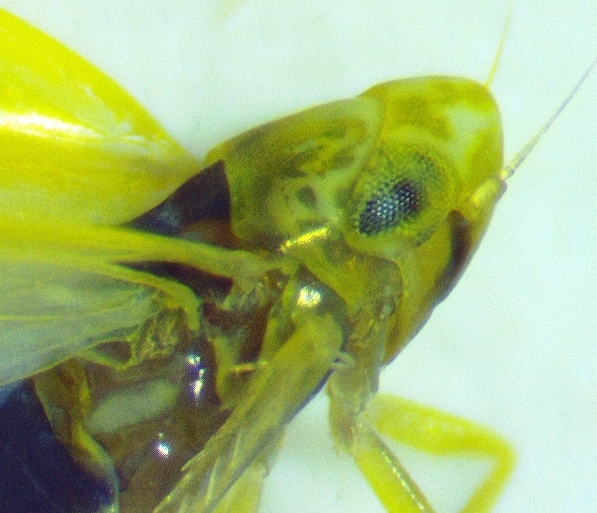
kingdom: Animalia
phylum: Arthropoda
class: Insecta
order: Hemiptera
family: Cicadellidae
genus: Erythridula
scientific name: Erythridula pfrimmeri
